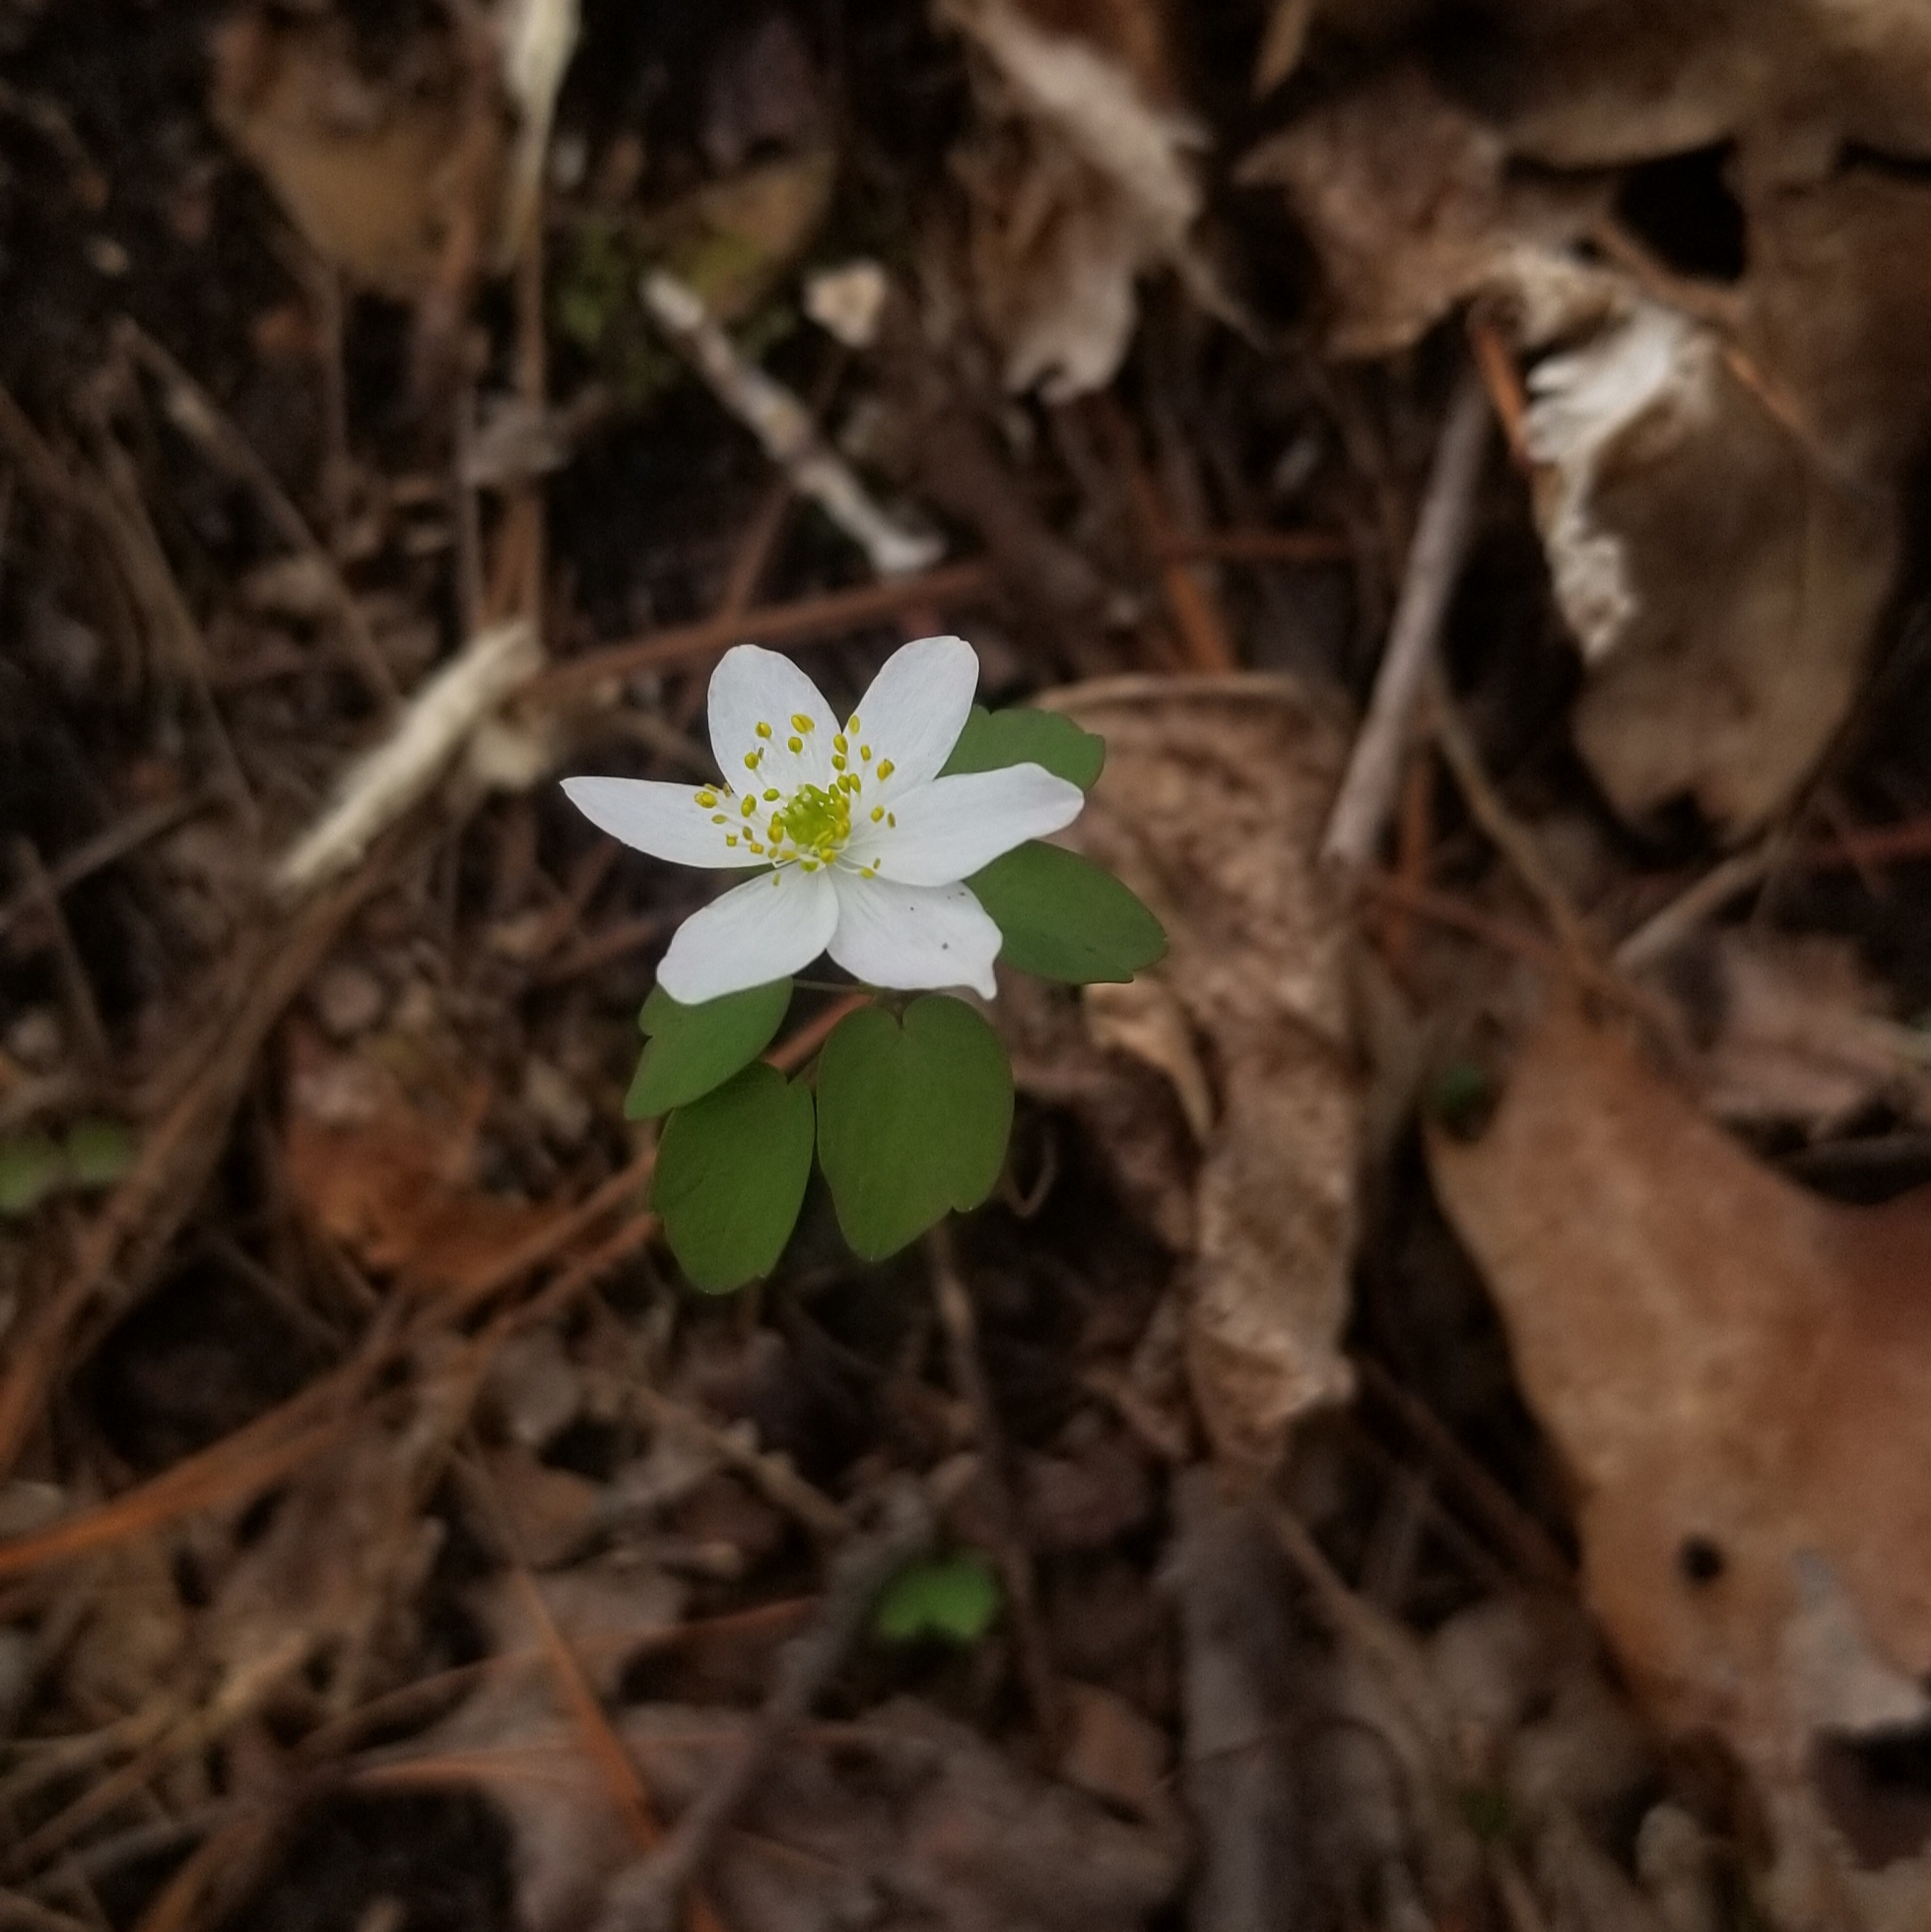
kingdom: Plantae
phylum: Tracheophyta
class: Magnoliopsida
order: Ranunculales
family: Ranunculaceae
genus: Thalictrum
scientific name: Thalictrum thalictroides
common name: Rue-anemone
